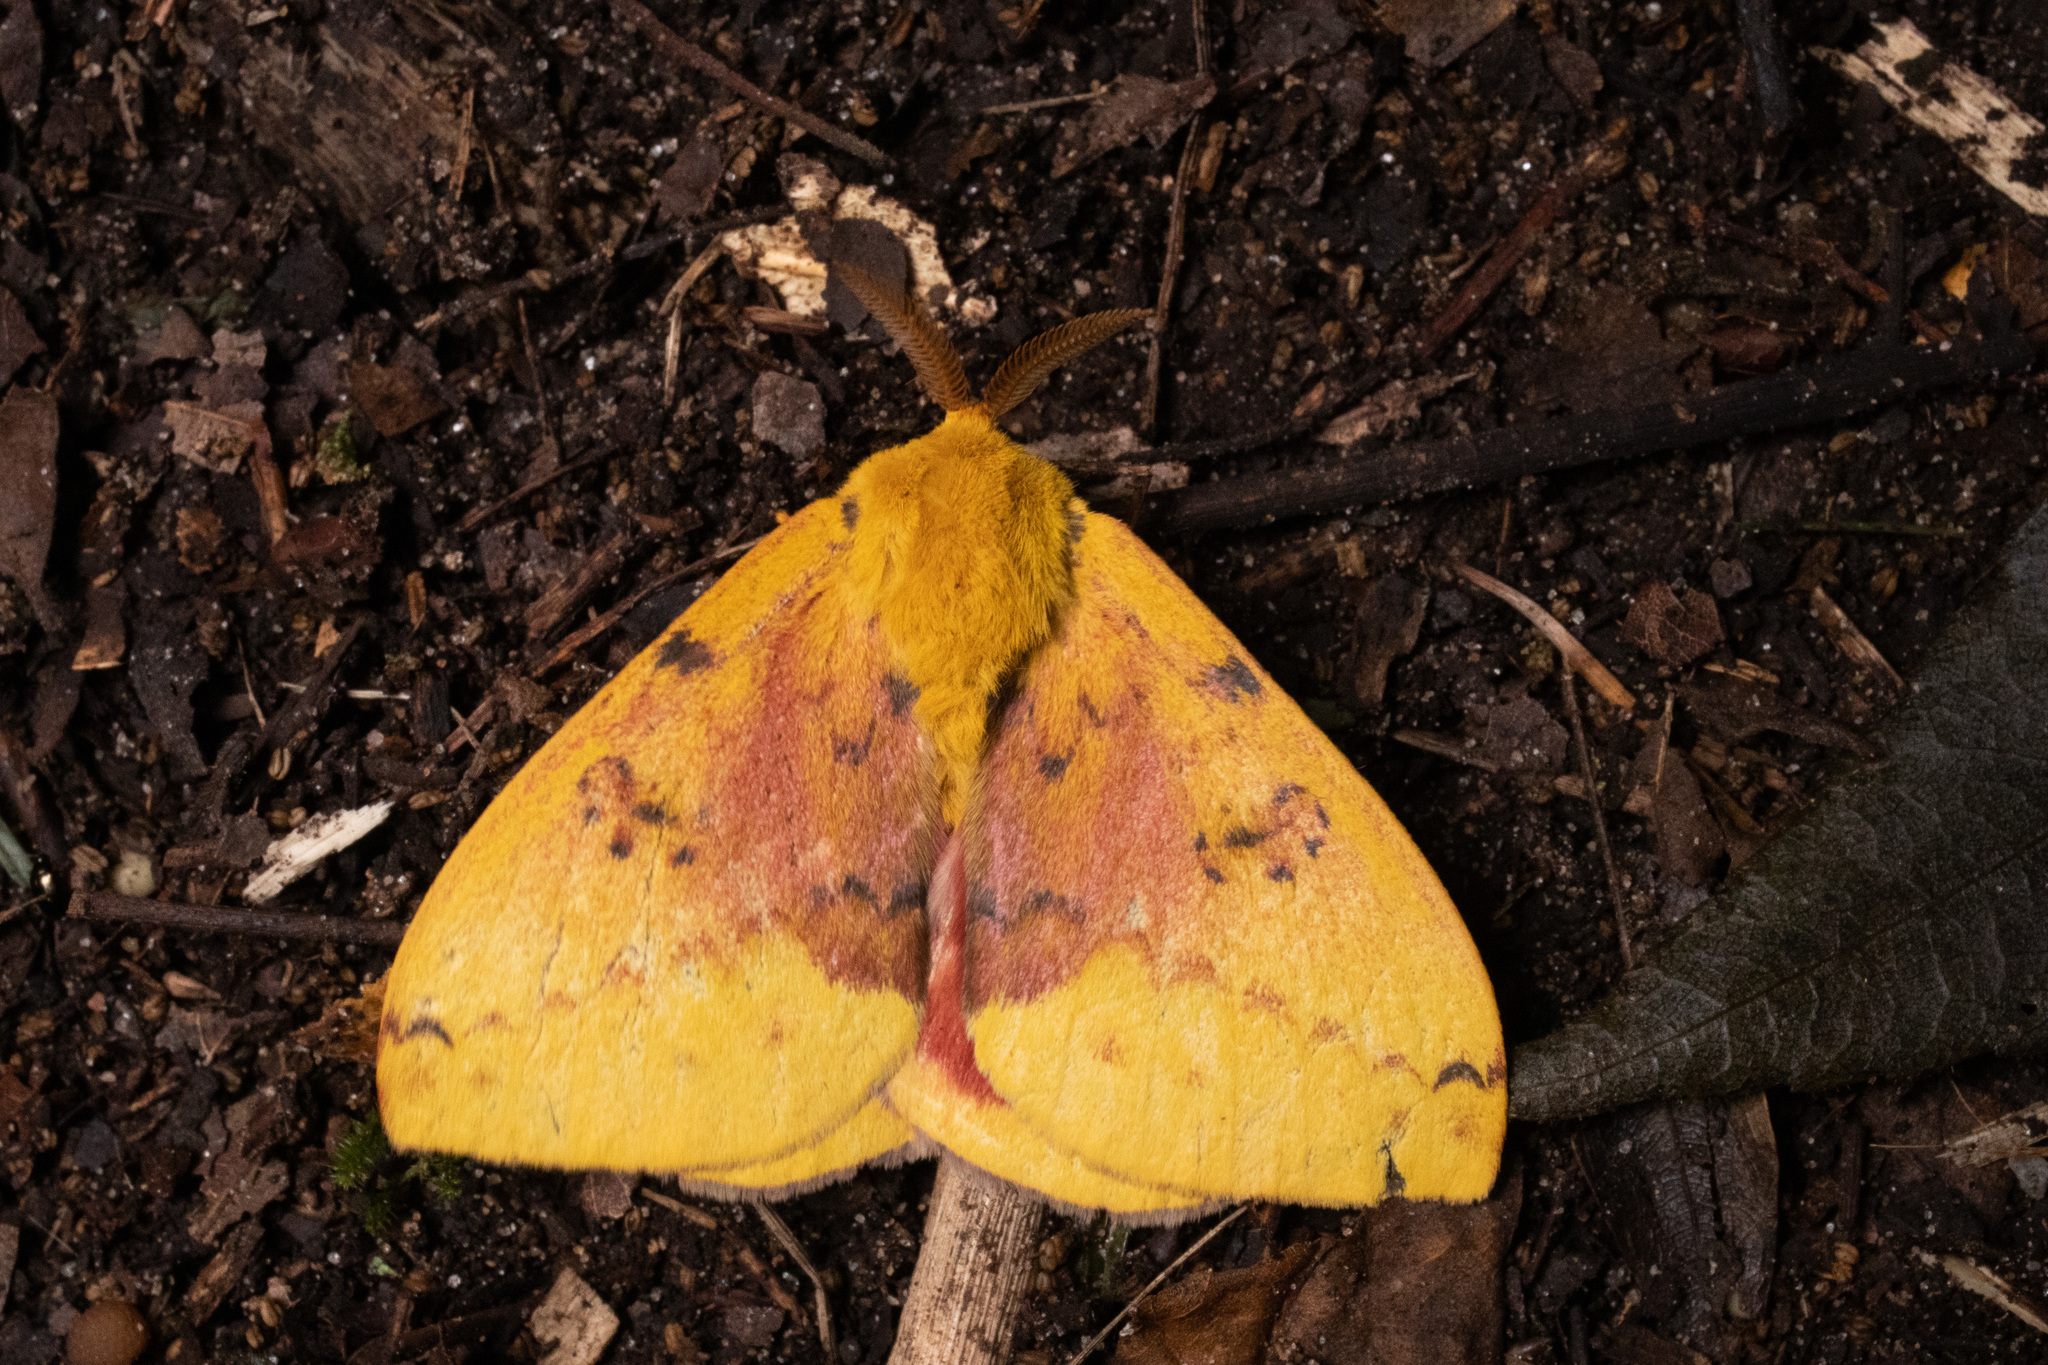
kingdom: Animalia
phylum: Arthropoda
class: Insecta
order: Lepidoptera
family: Saturniidae
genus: Automeris
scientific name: Automeris io
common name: Io moth
